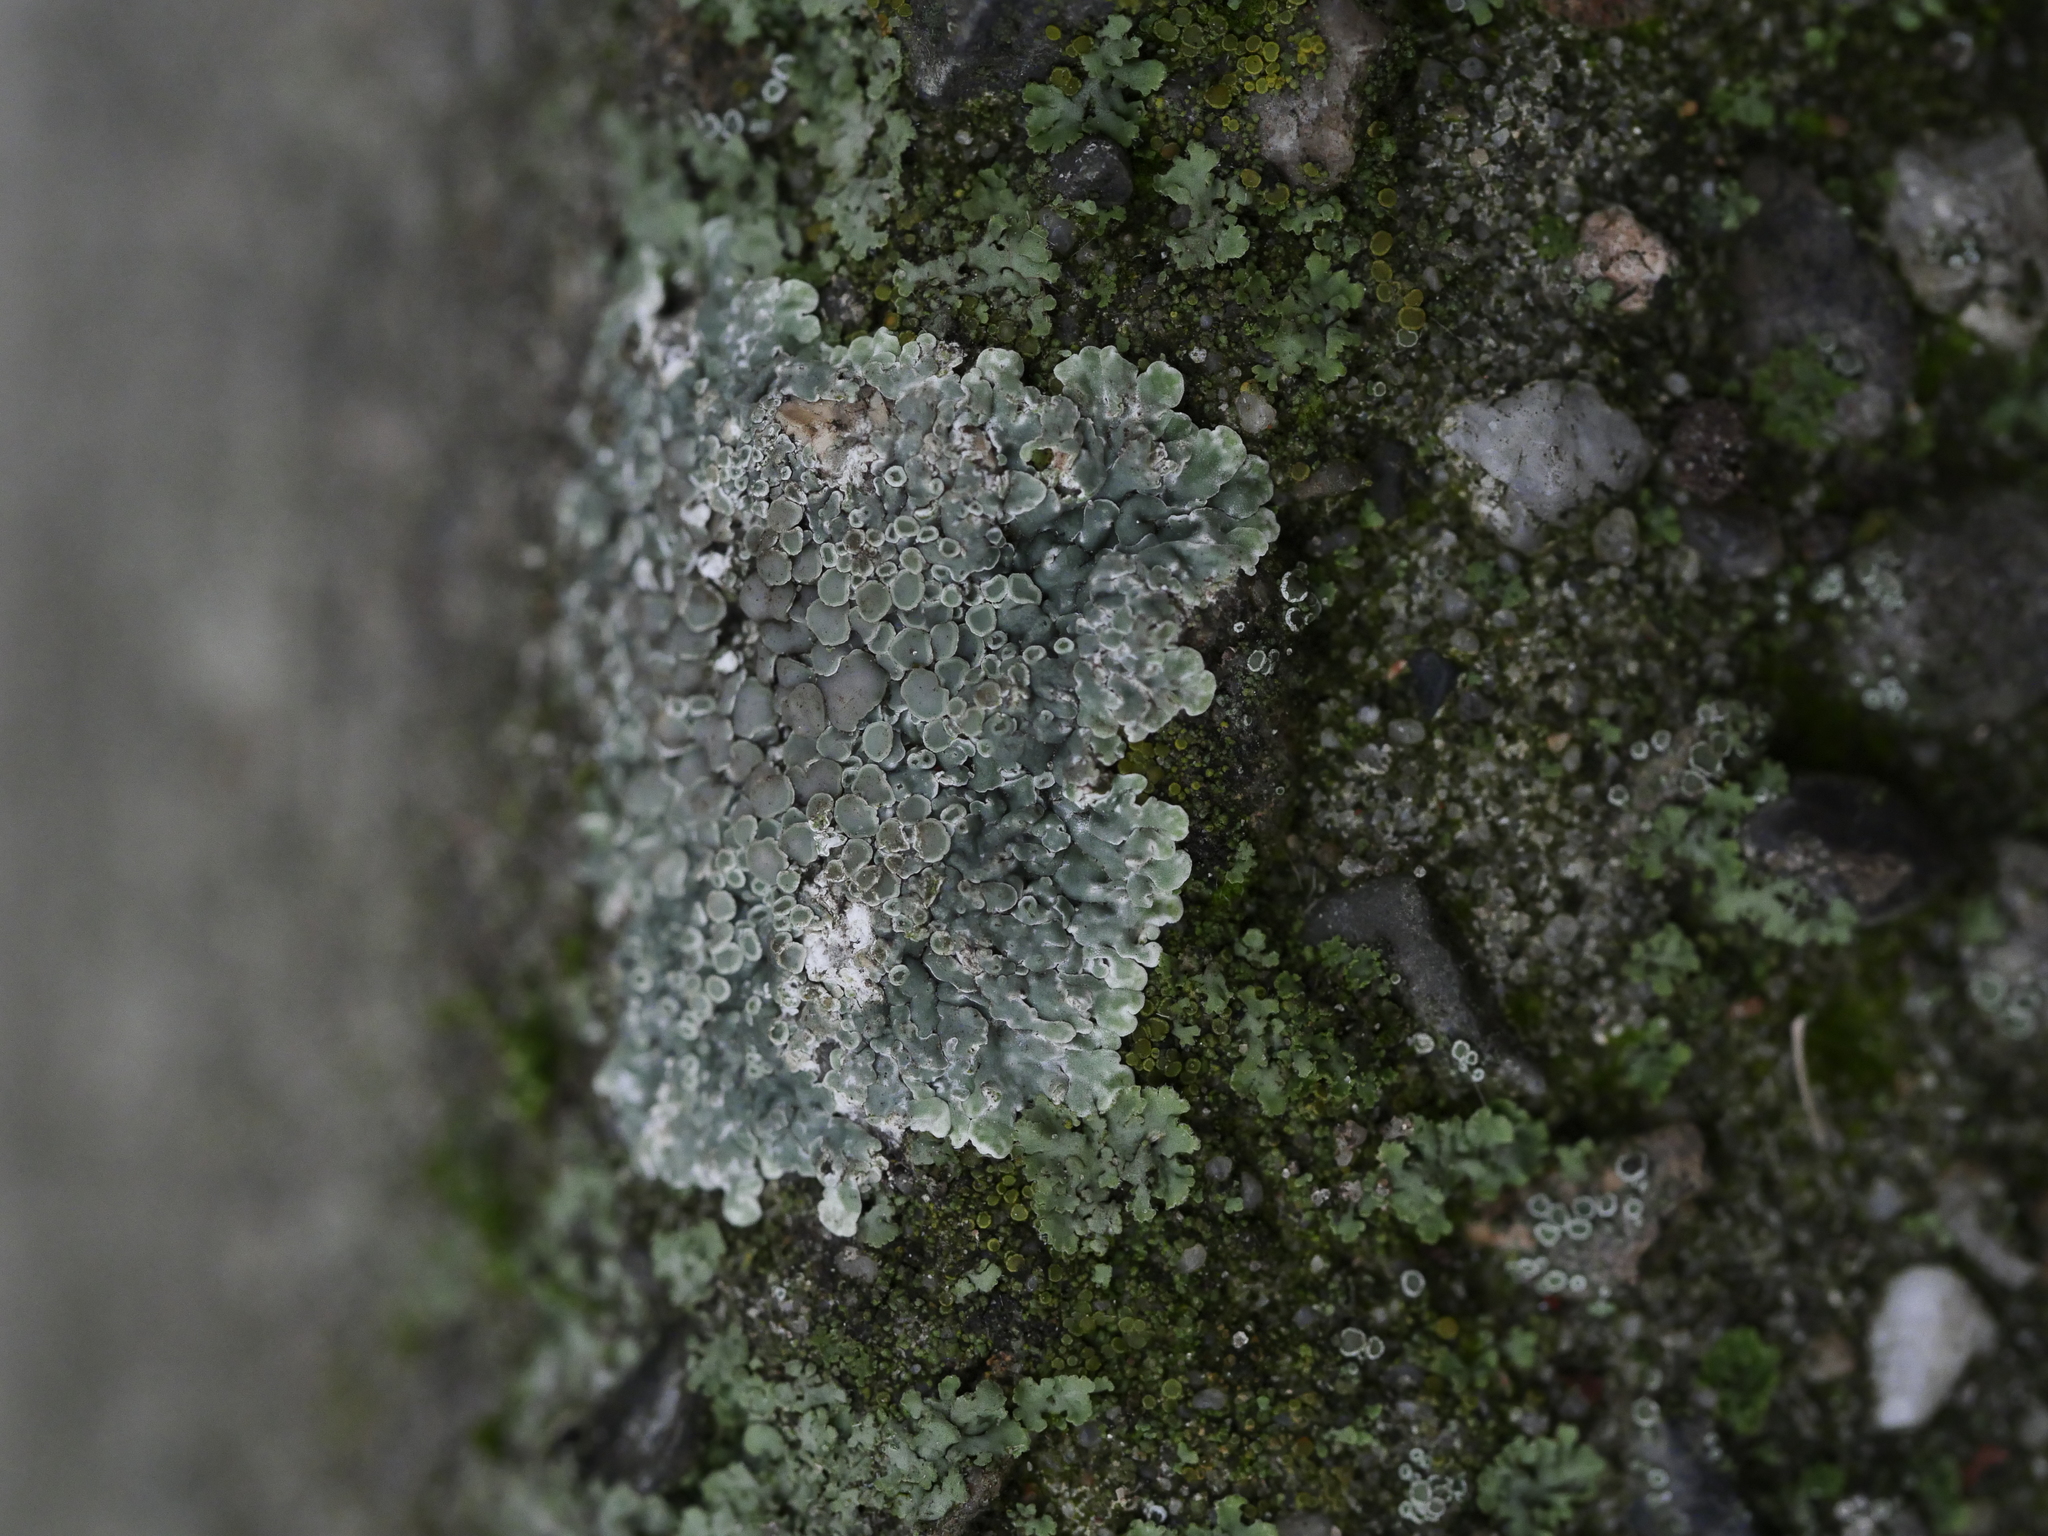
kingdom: Fungi
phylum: Ascomycota
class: Lecanoromycetes
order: Lecanorales
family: Lecanoraceae
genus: Protoparmeliopsis
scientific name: Protoparmeliopsis muralis
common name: Stonewall rim lichen
